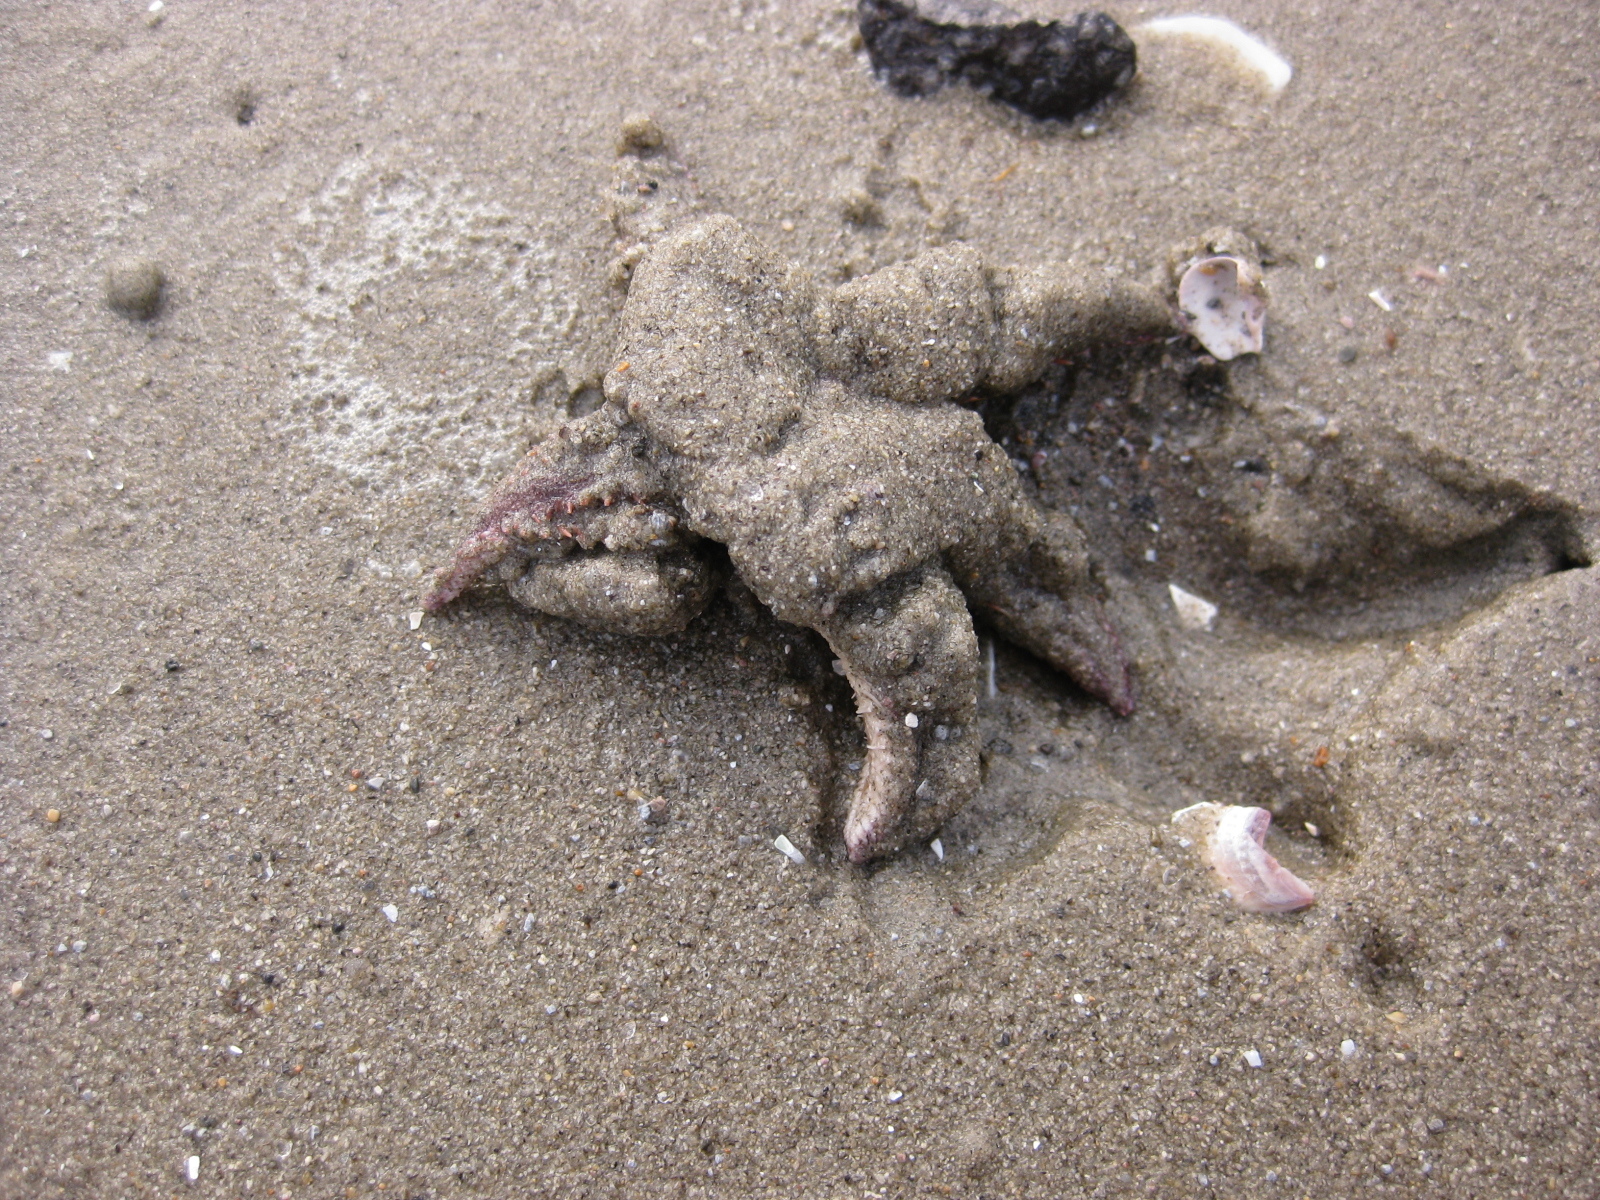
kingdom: Animalia
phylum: Echinodermata
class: Asteroidea
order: Paxillosida
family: Astropectinidae
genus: Astropecten
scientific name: Astropecten polyacanthus
